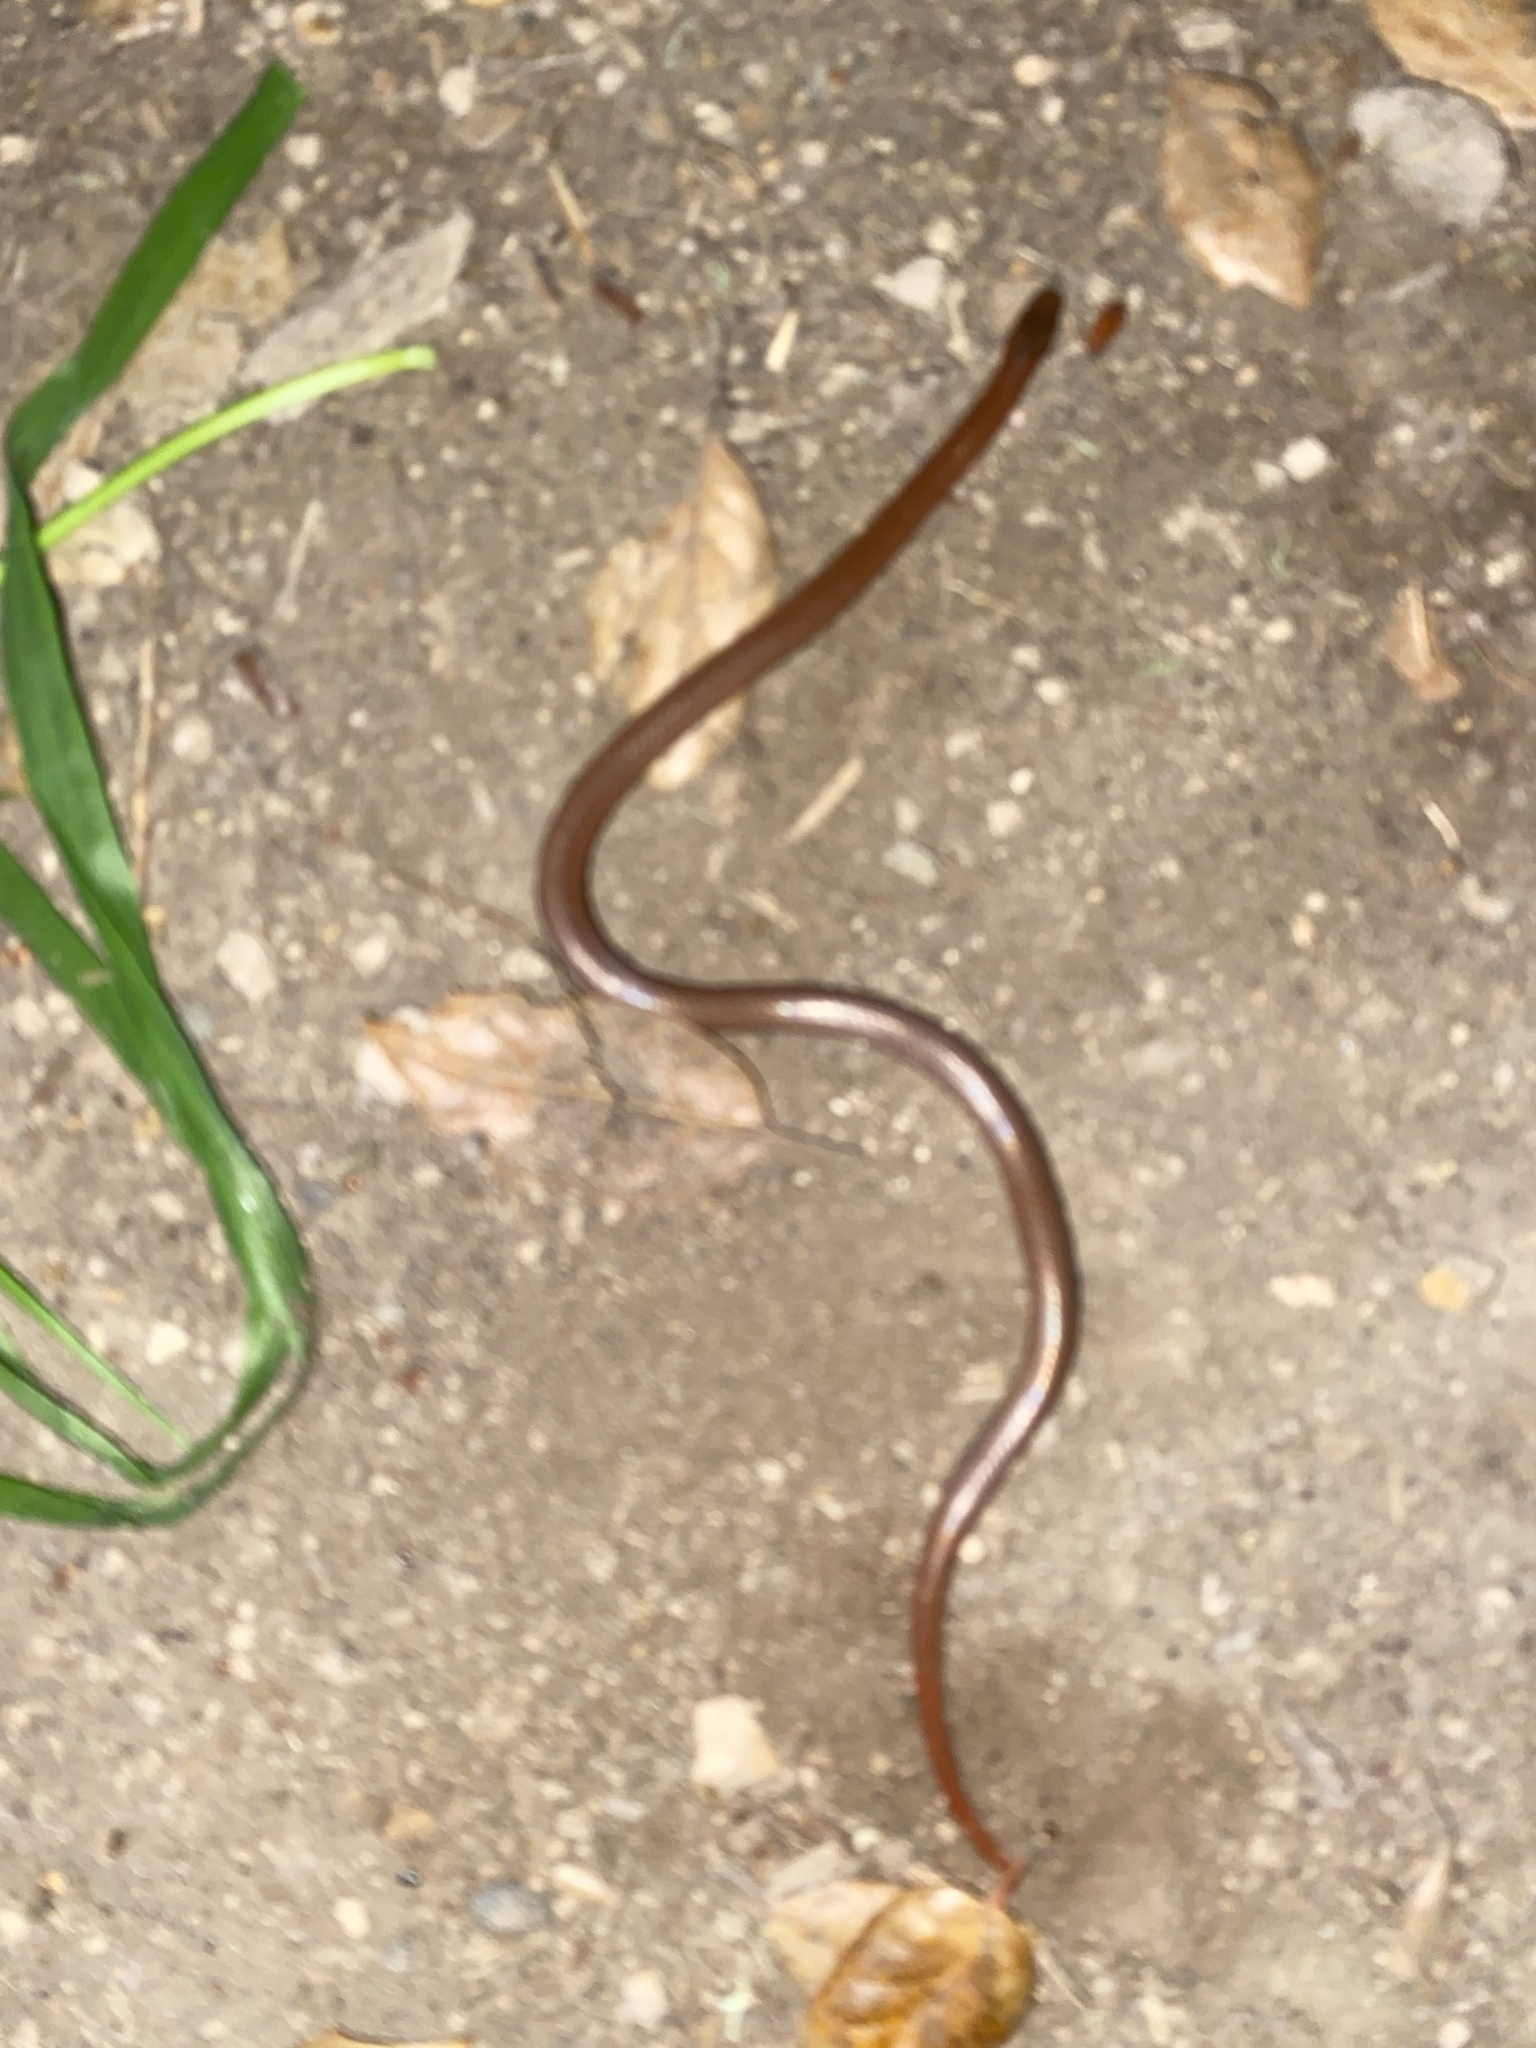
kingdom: Animalia
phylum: Chordata
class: Squamata
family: Colubridae
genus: Contia
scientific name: Contia tenuis
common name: Sharptail snake
